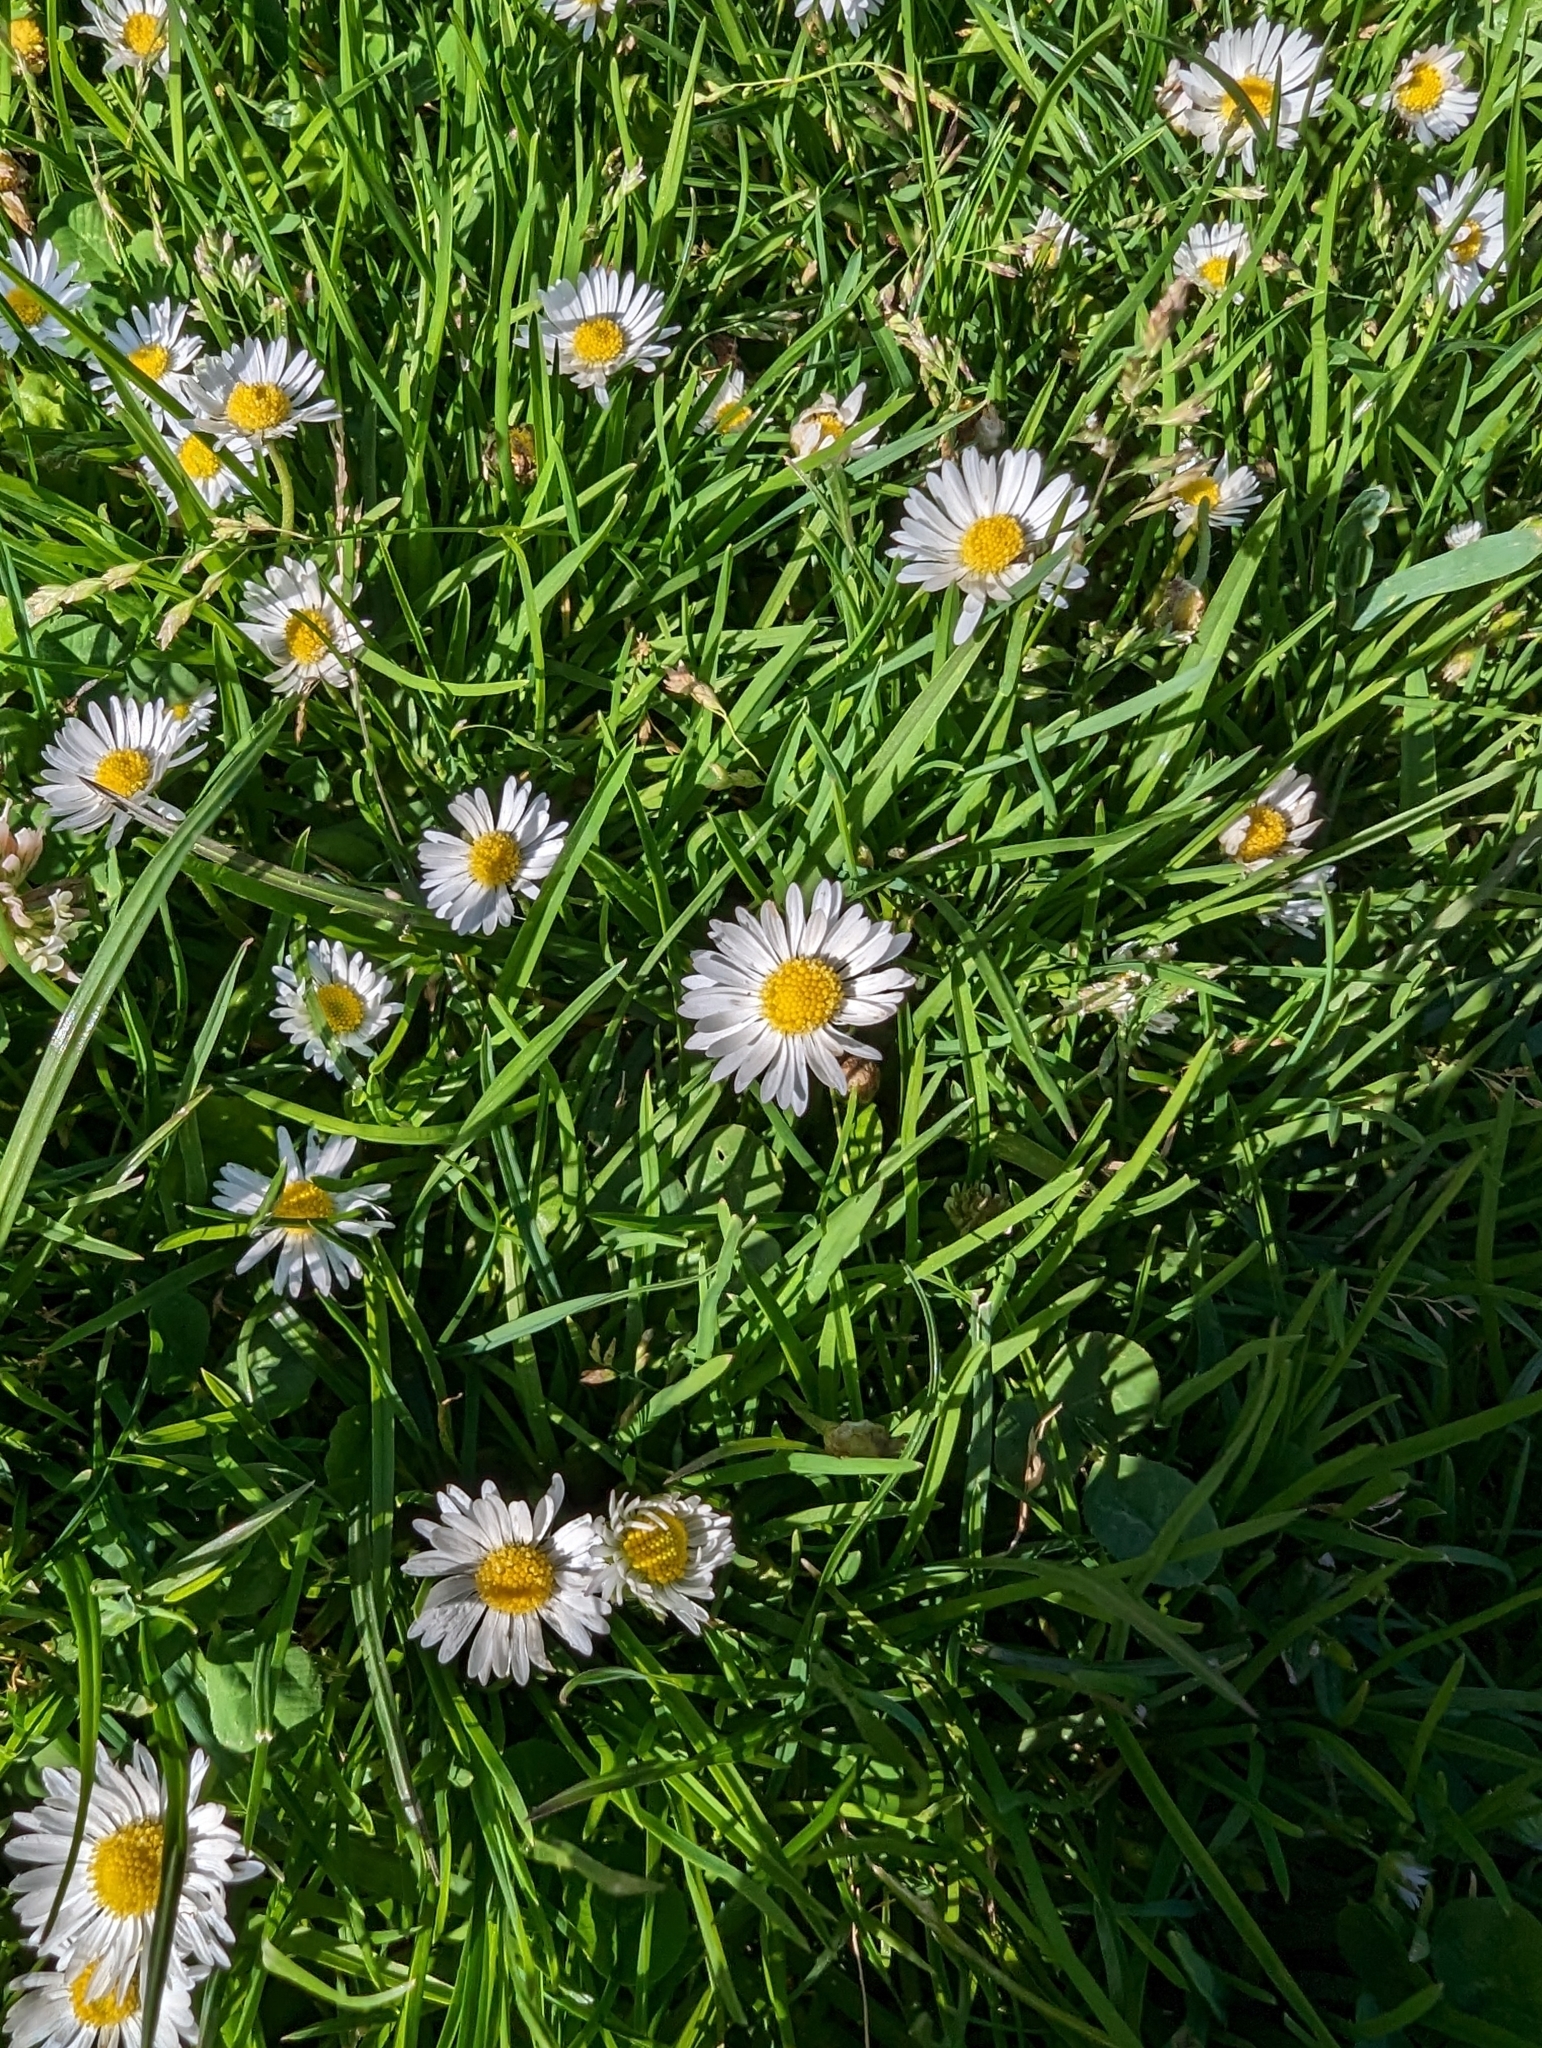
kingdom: Plantae
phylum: Tracheophyta
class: Magnoliopsida
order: Asterales
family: Asteraceae
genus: Bellis
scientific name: Bellis perennis
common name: Lawndaisy
